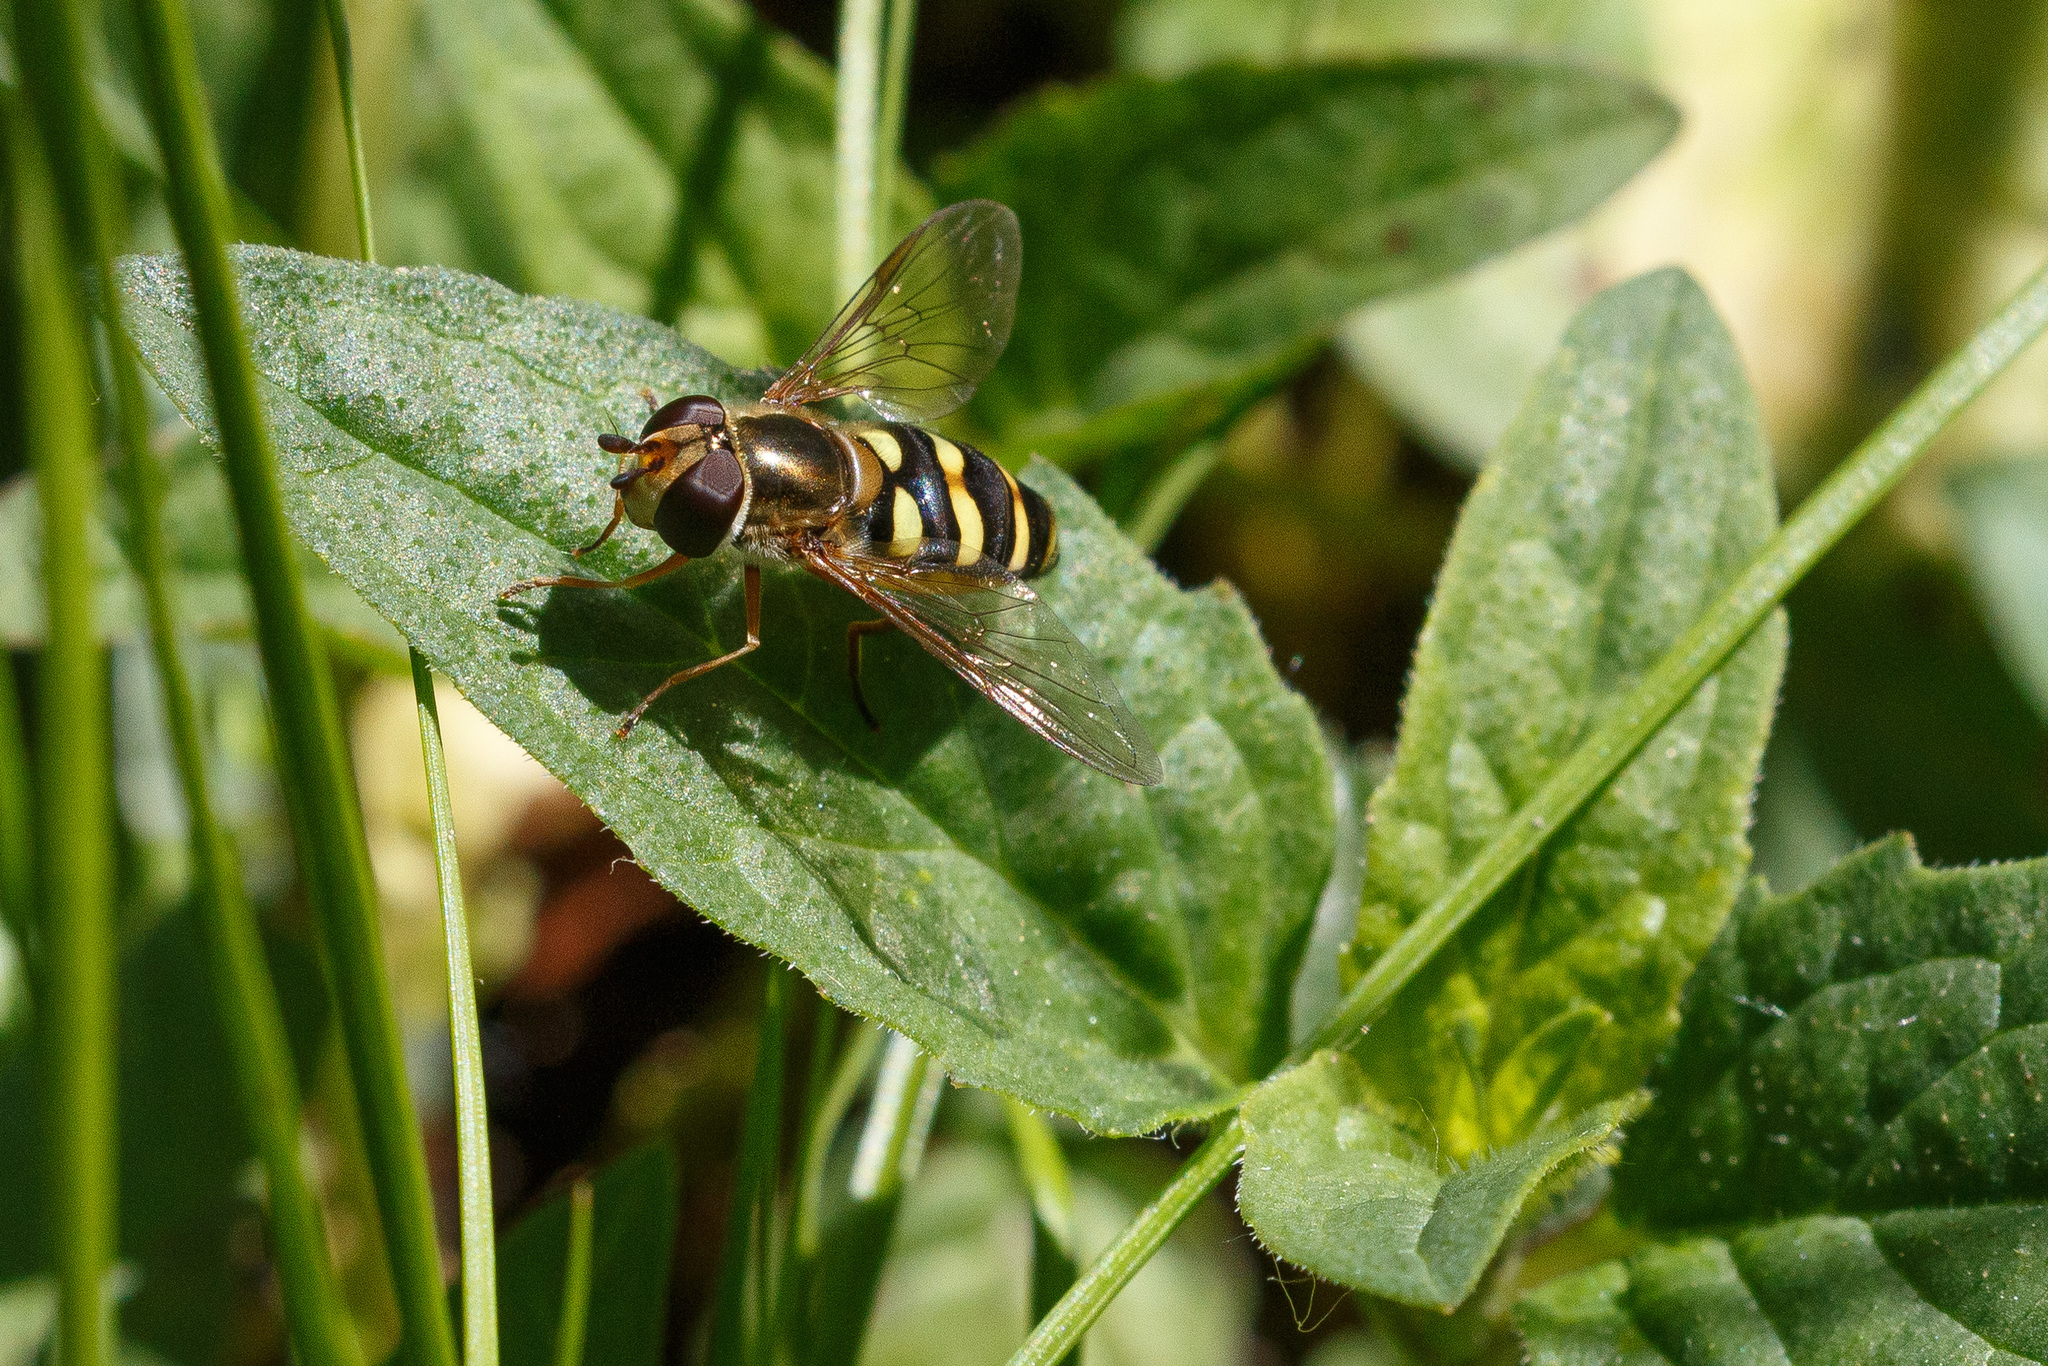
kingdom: Animalia
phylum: Arthropoda
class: Insecta
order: Diptera
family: Syrphidae
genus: Eupeodes
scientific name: Eupeodes fumipennis
